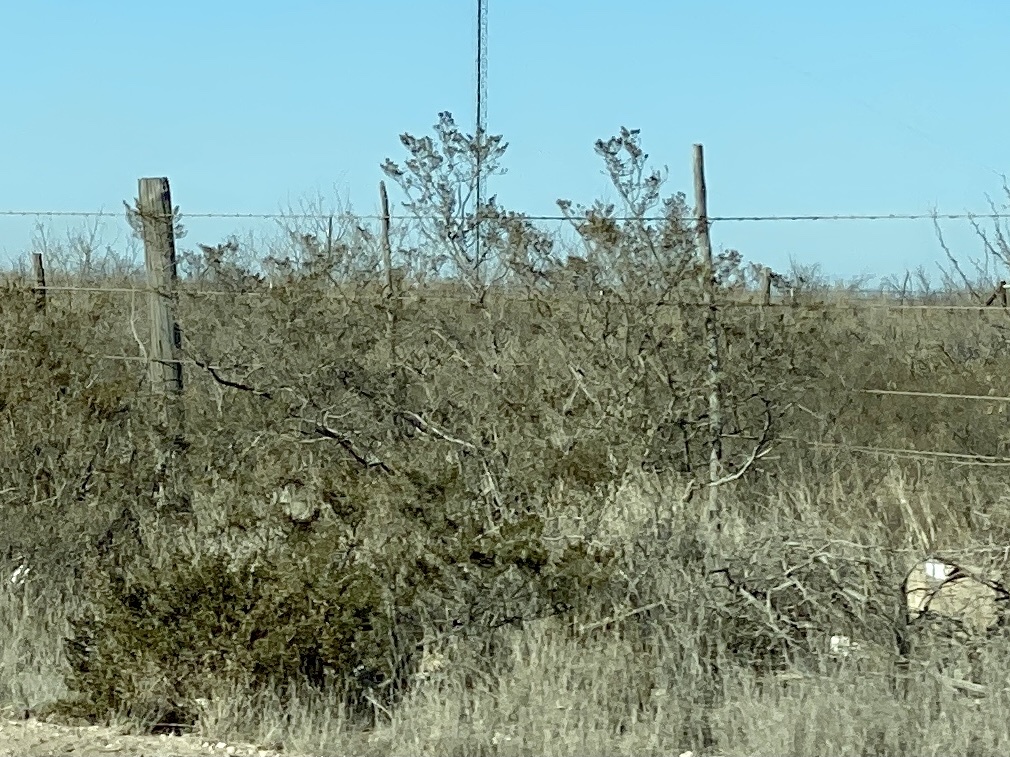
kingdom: Plantae
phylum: Tracheophyta
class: Magnoliopsida
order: Zygophyllales
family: Zygophyllaceae
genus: Larrea
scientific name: Larrea tridentata
